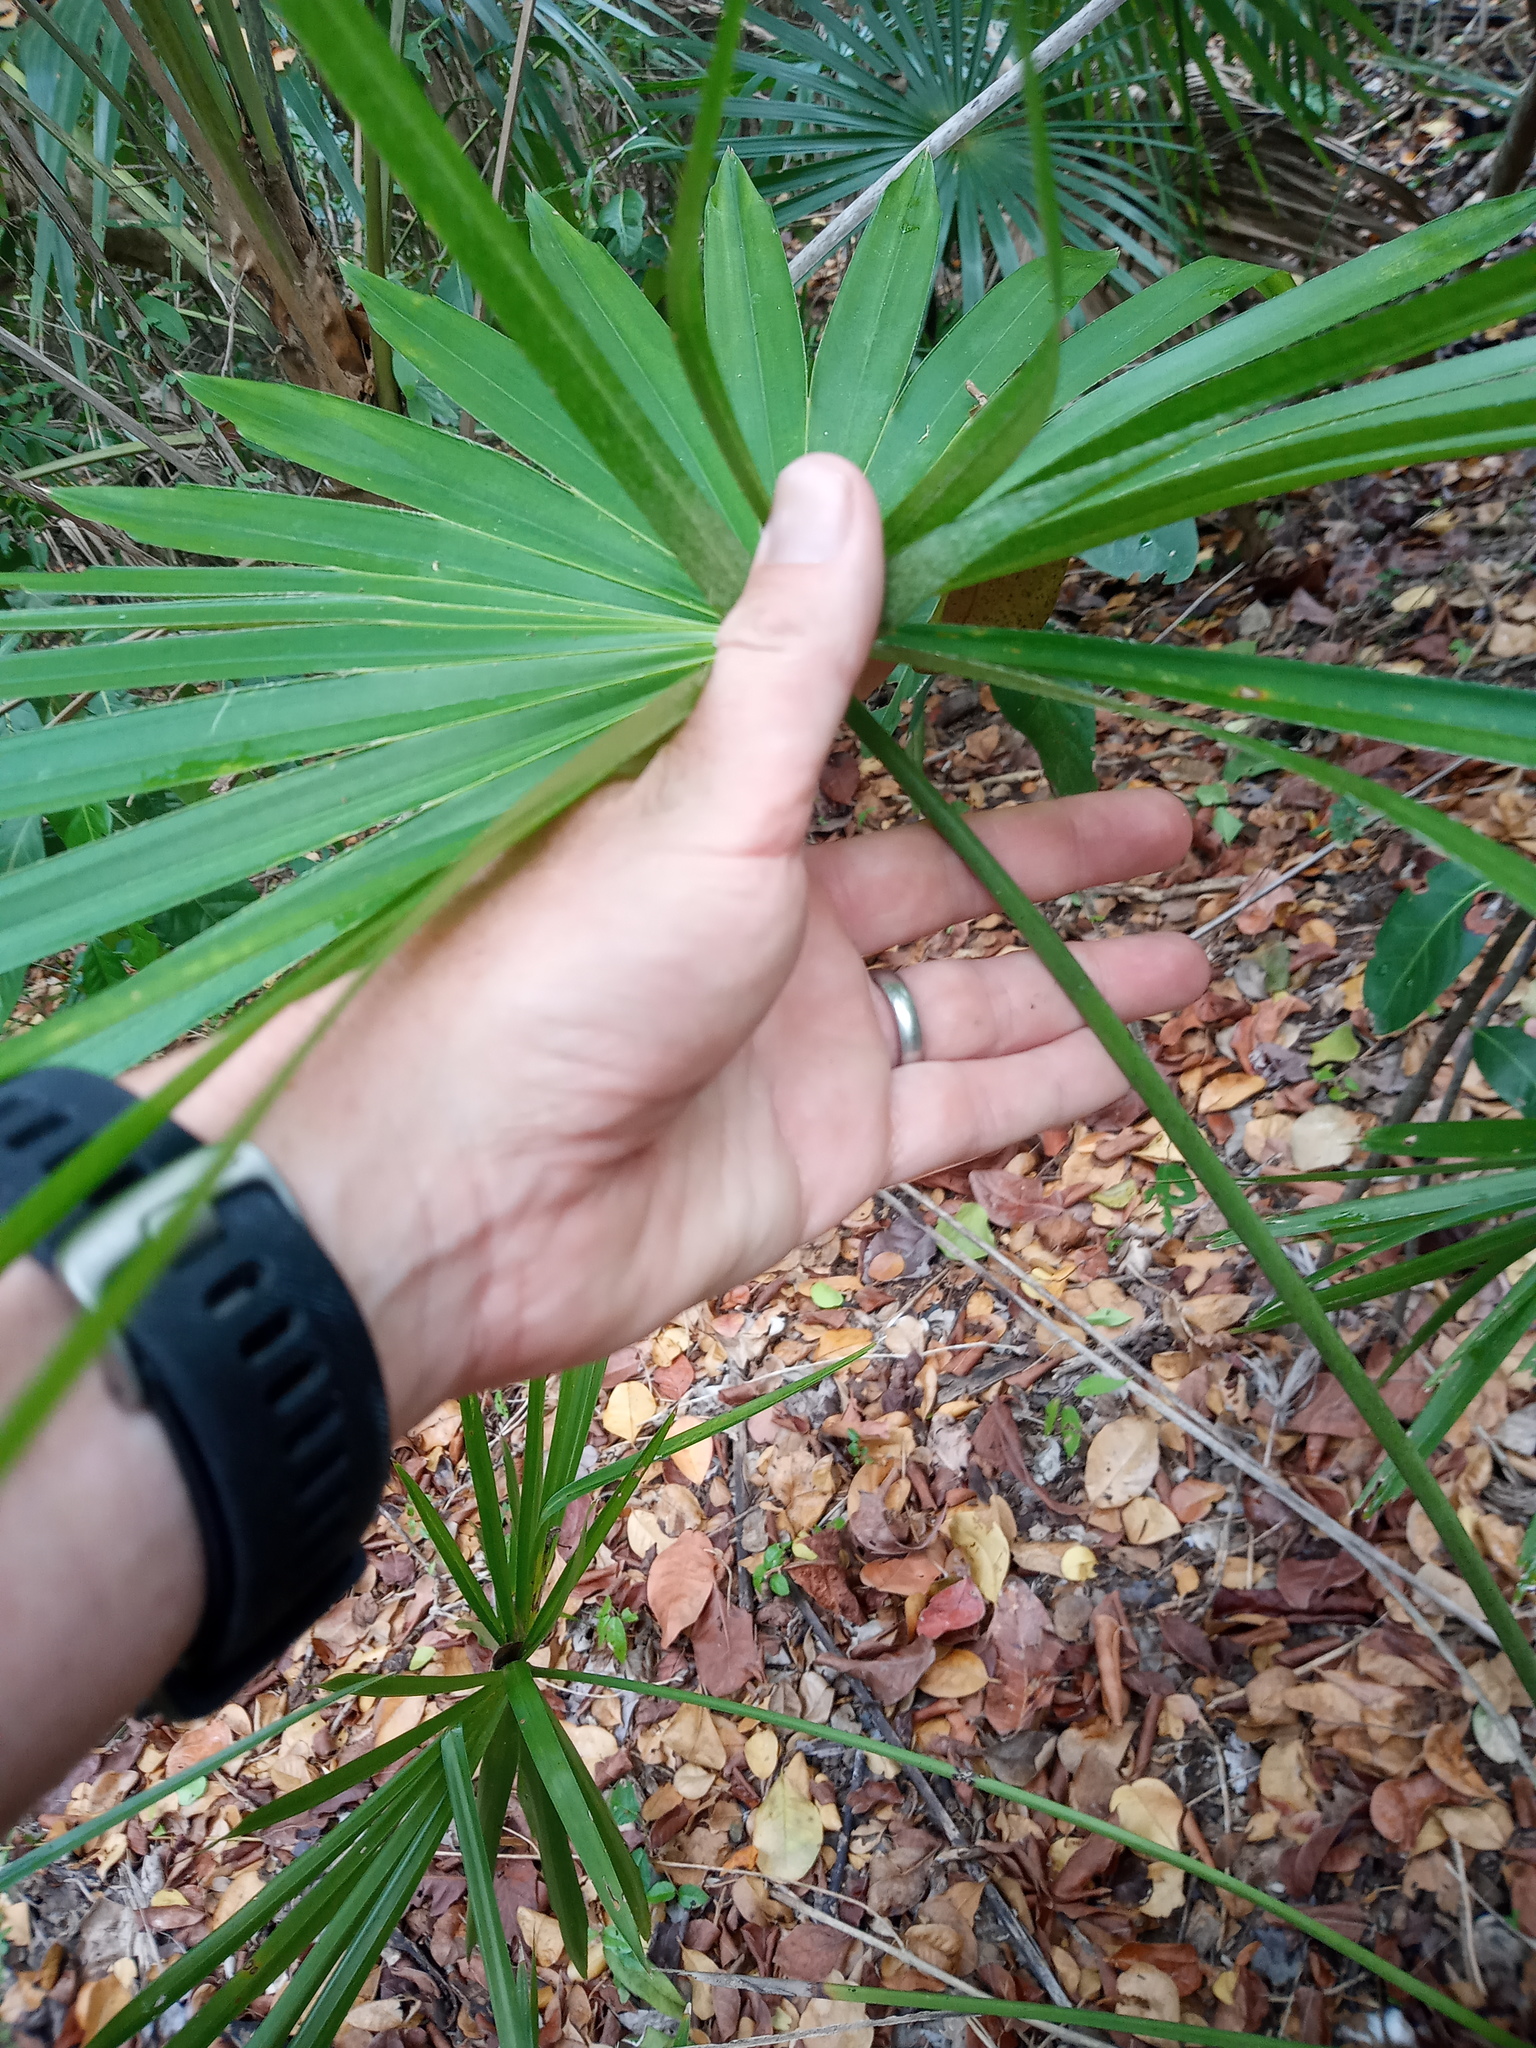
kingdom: Plantae
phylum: Tracheophyta
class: Liliopsida
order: Arecales
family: Arecaceae
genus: Coccothrinax
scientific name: Coccothrinax alta
